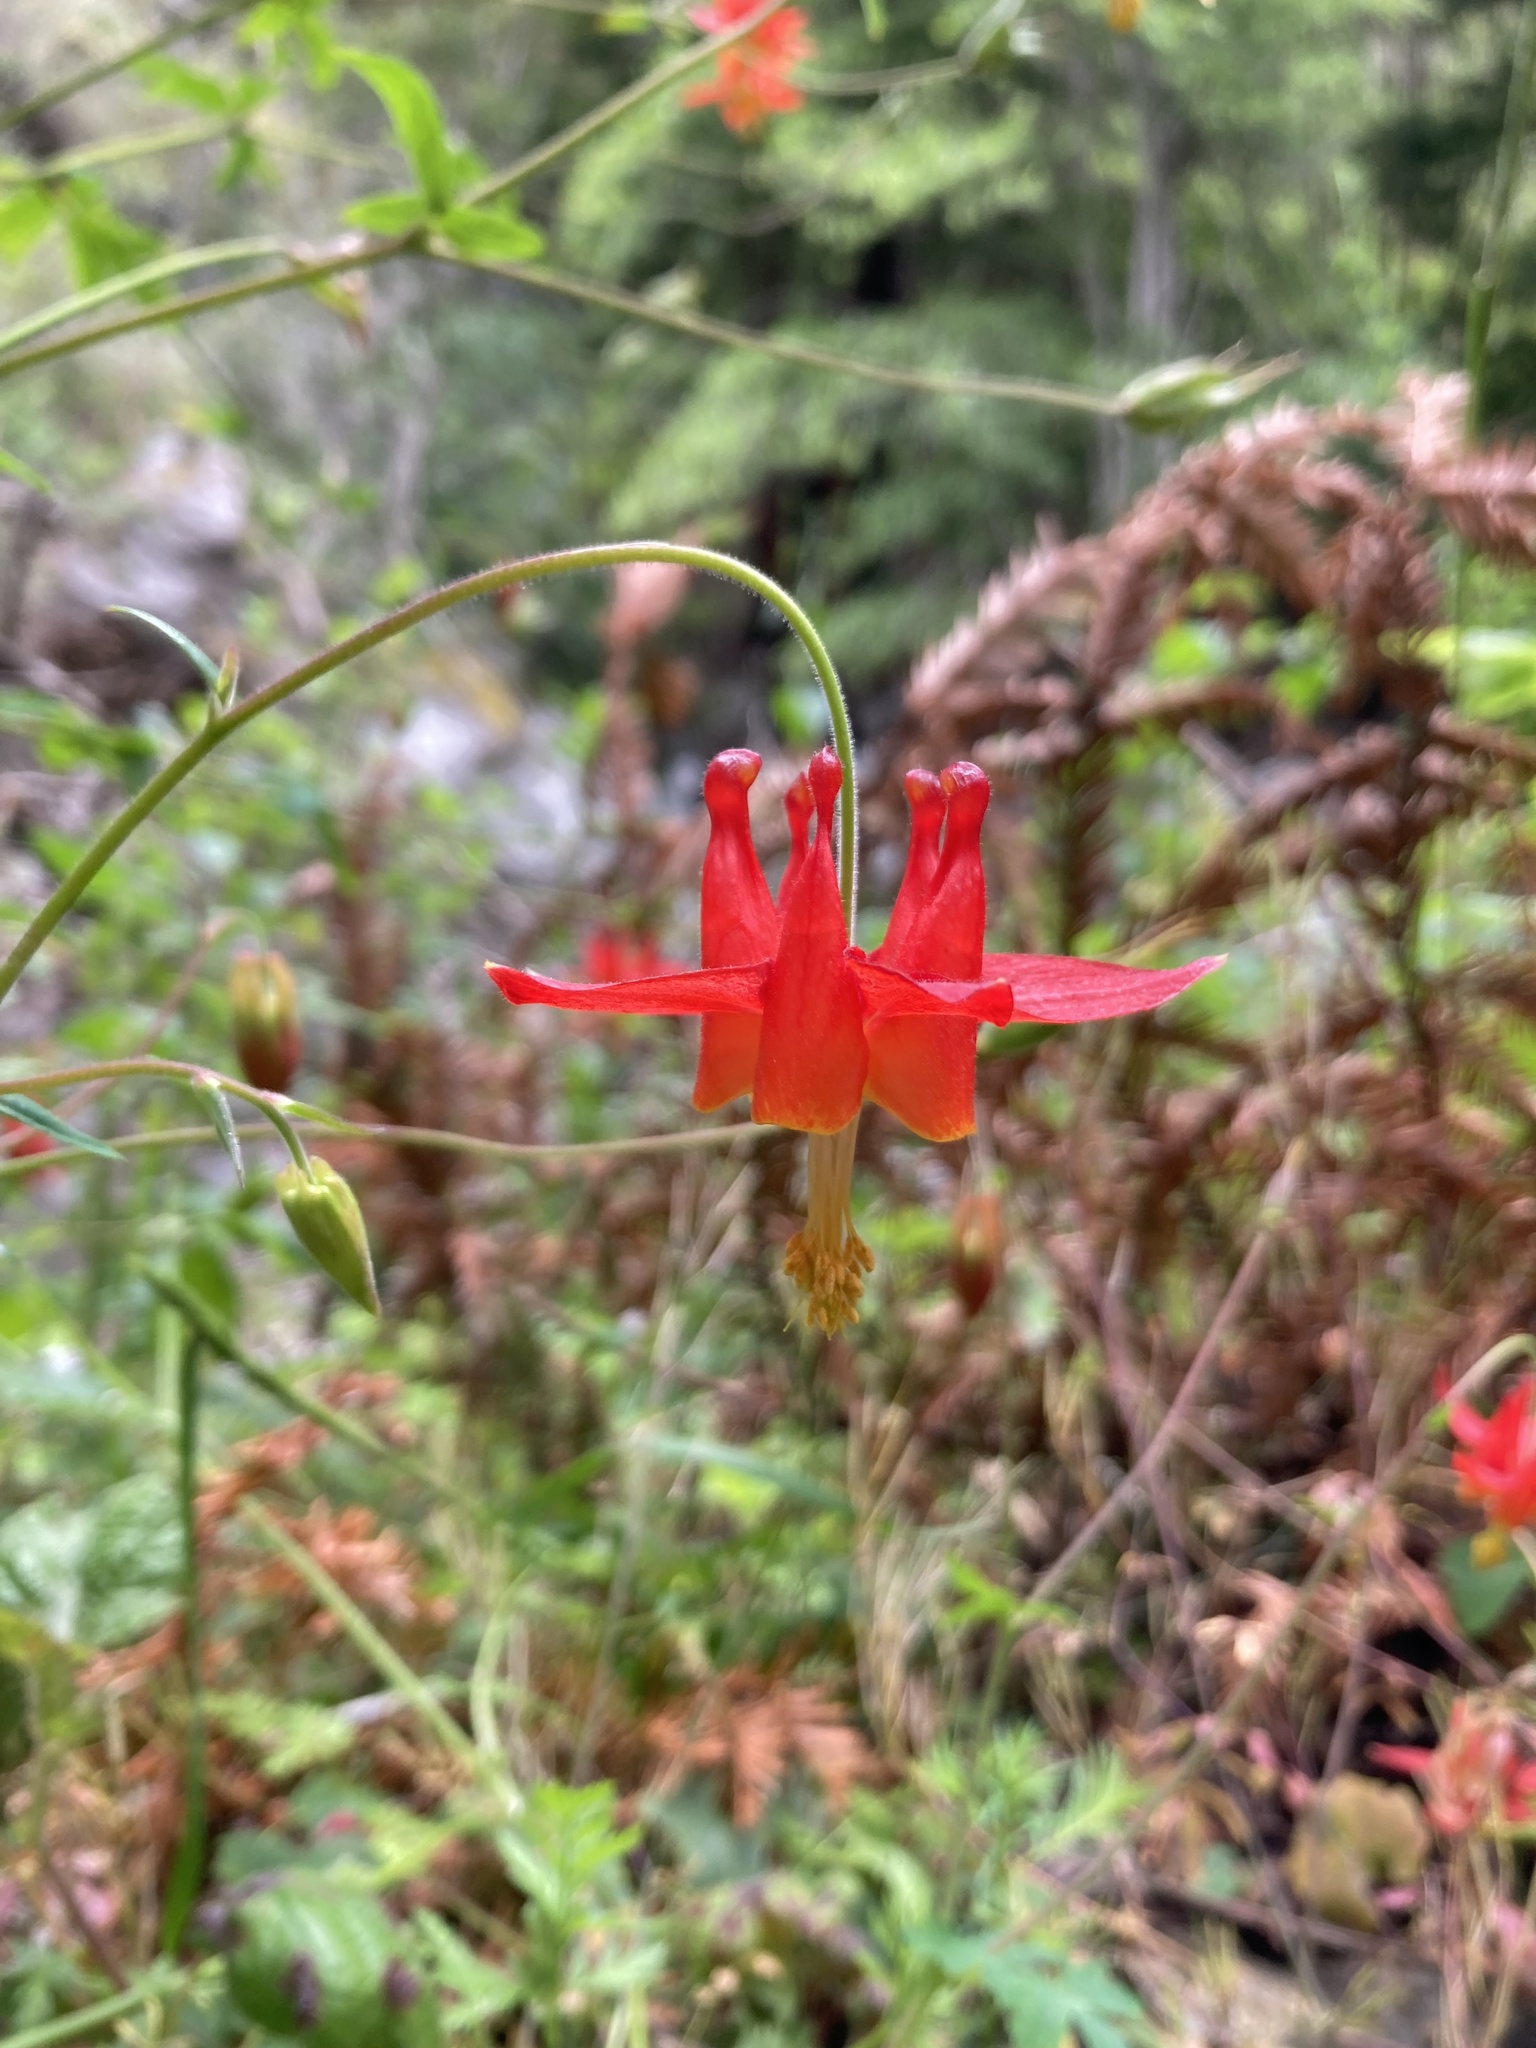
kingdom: Plantae
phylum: Tracheophyta
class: Magnoliopsida
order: Ranunculales
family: Ranunculaceae
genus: Aquilegia
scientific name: Aquilegia formosa
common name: Sitka columbine
